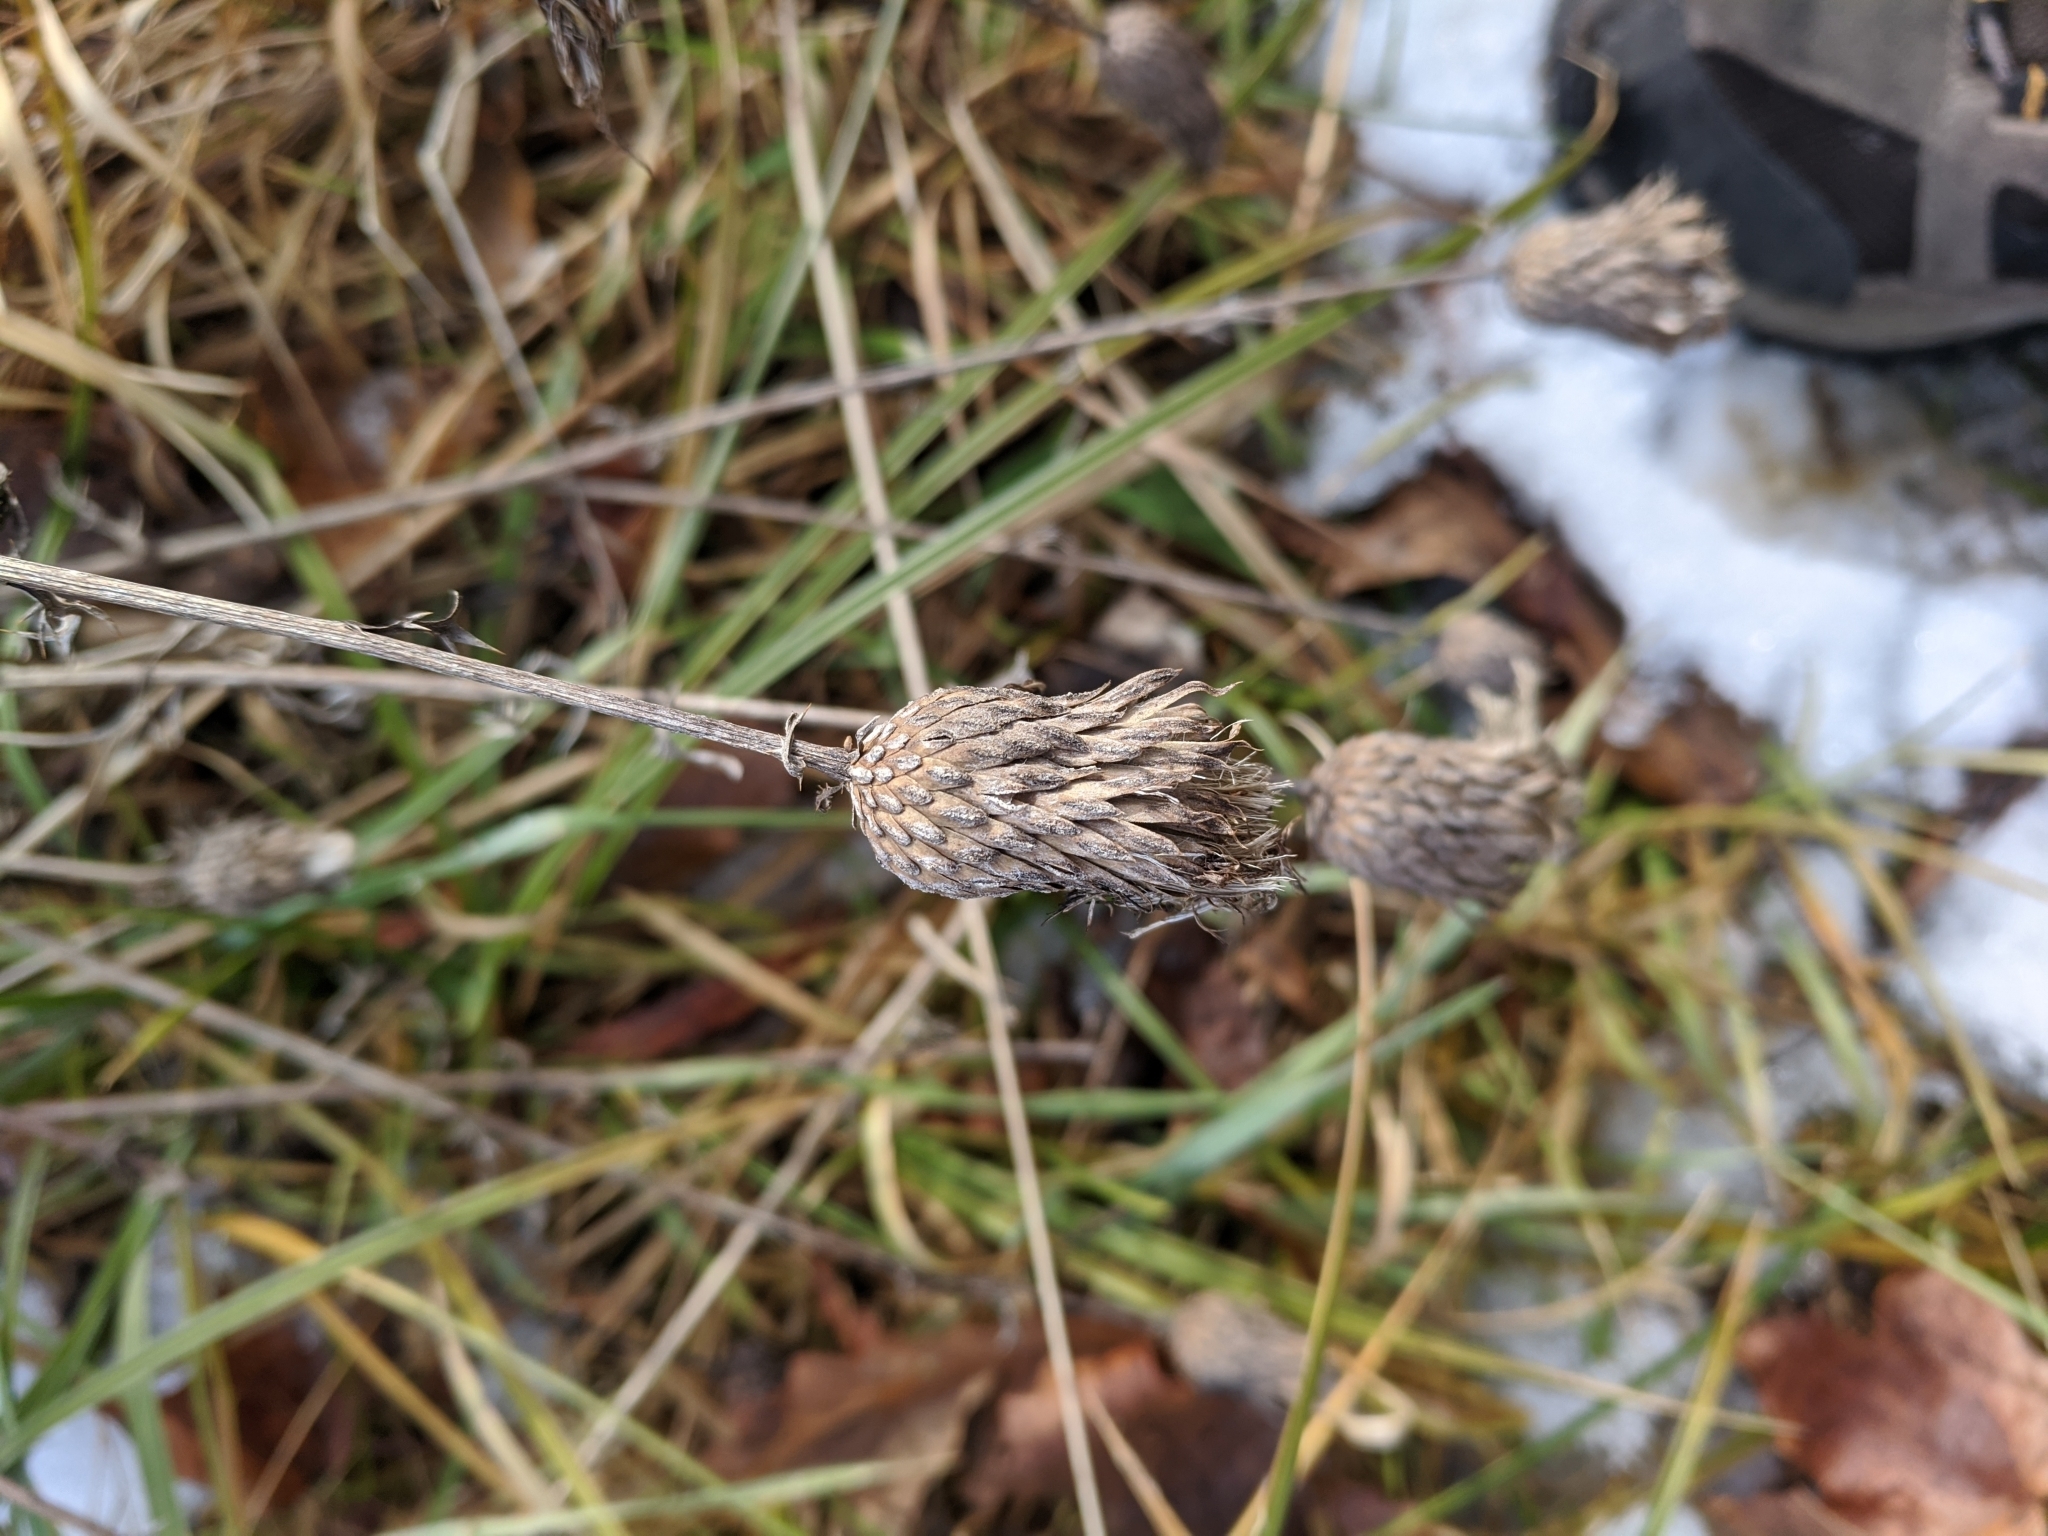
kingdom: Plantae
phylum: Tracheophyta
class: Magnoliopsida
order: Asterales
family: Asteraceae
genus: Cirsium
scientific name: Cirsium muticum
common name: Dunce-nettle
